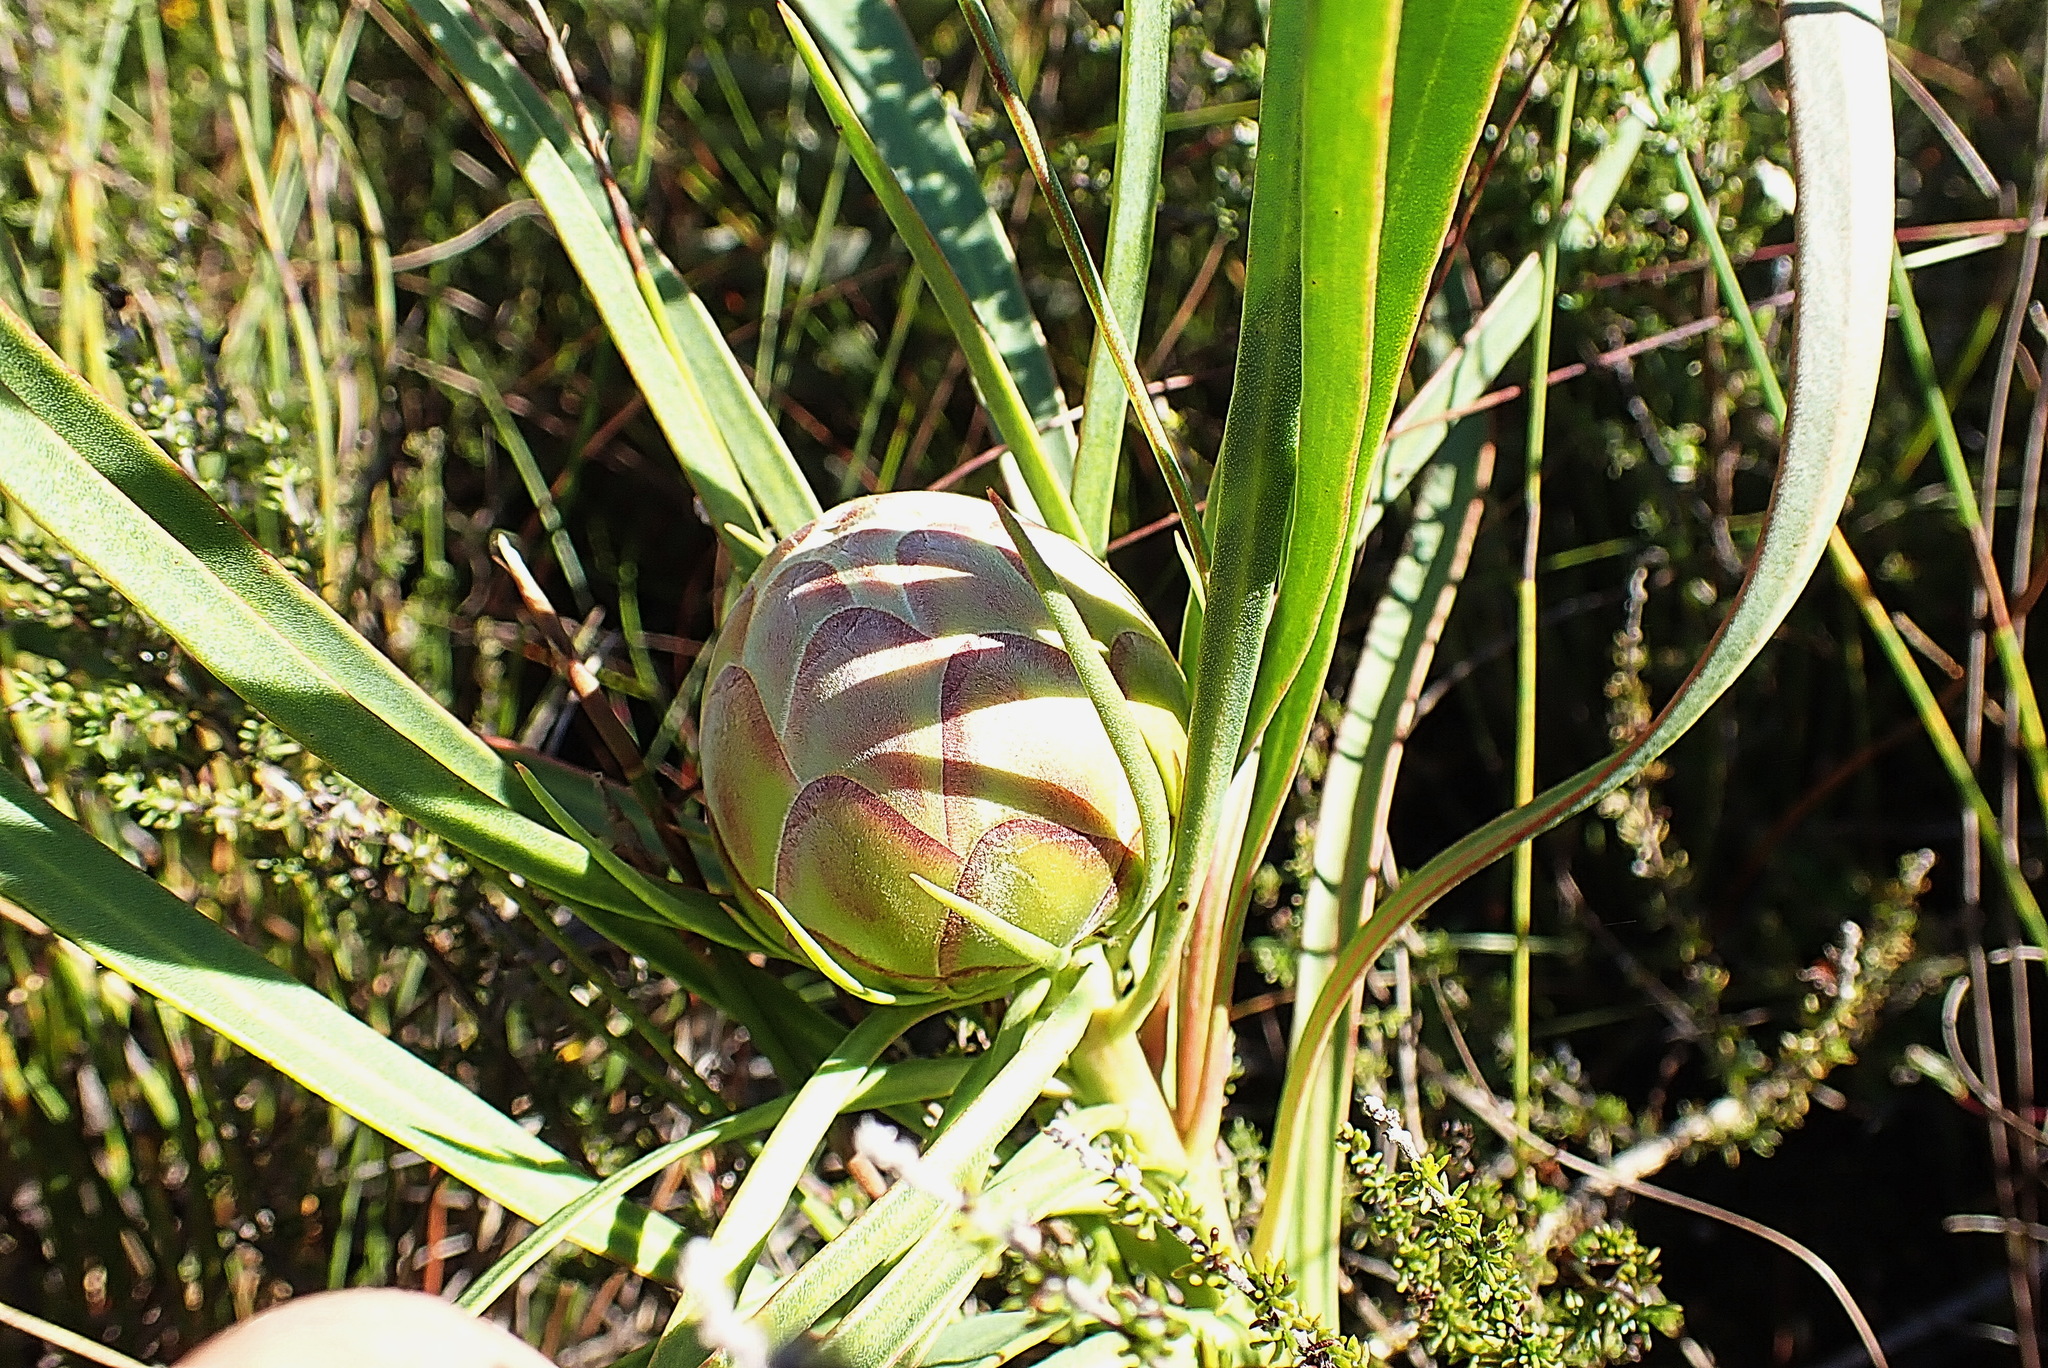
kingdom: Plantae
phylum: Tracheophyta
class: Magnoliopsida
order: Proteales
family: Proteaceae
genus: Protea
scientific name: Protea tenax
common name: Tenacious sugarbush
